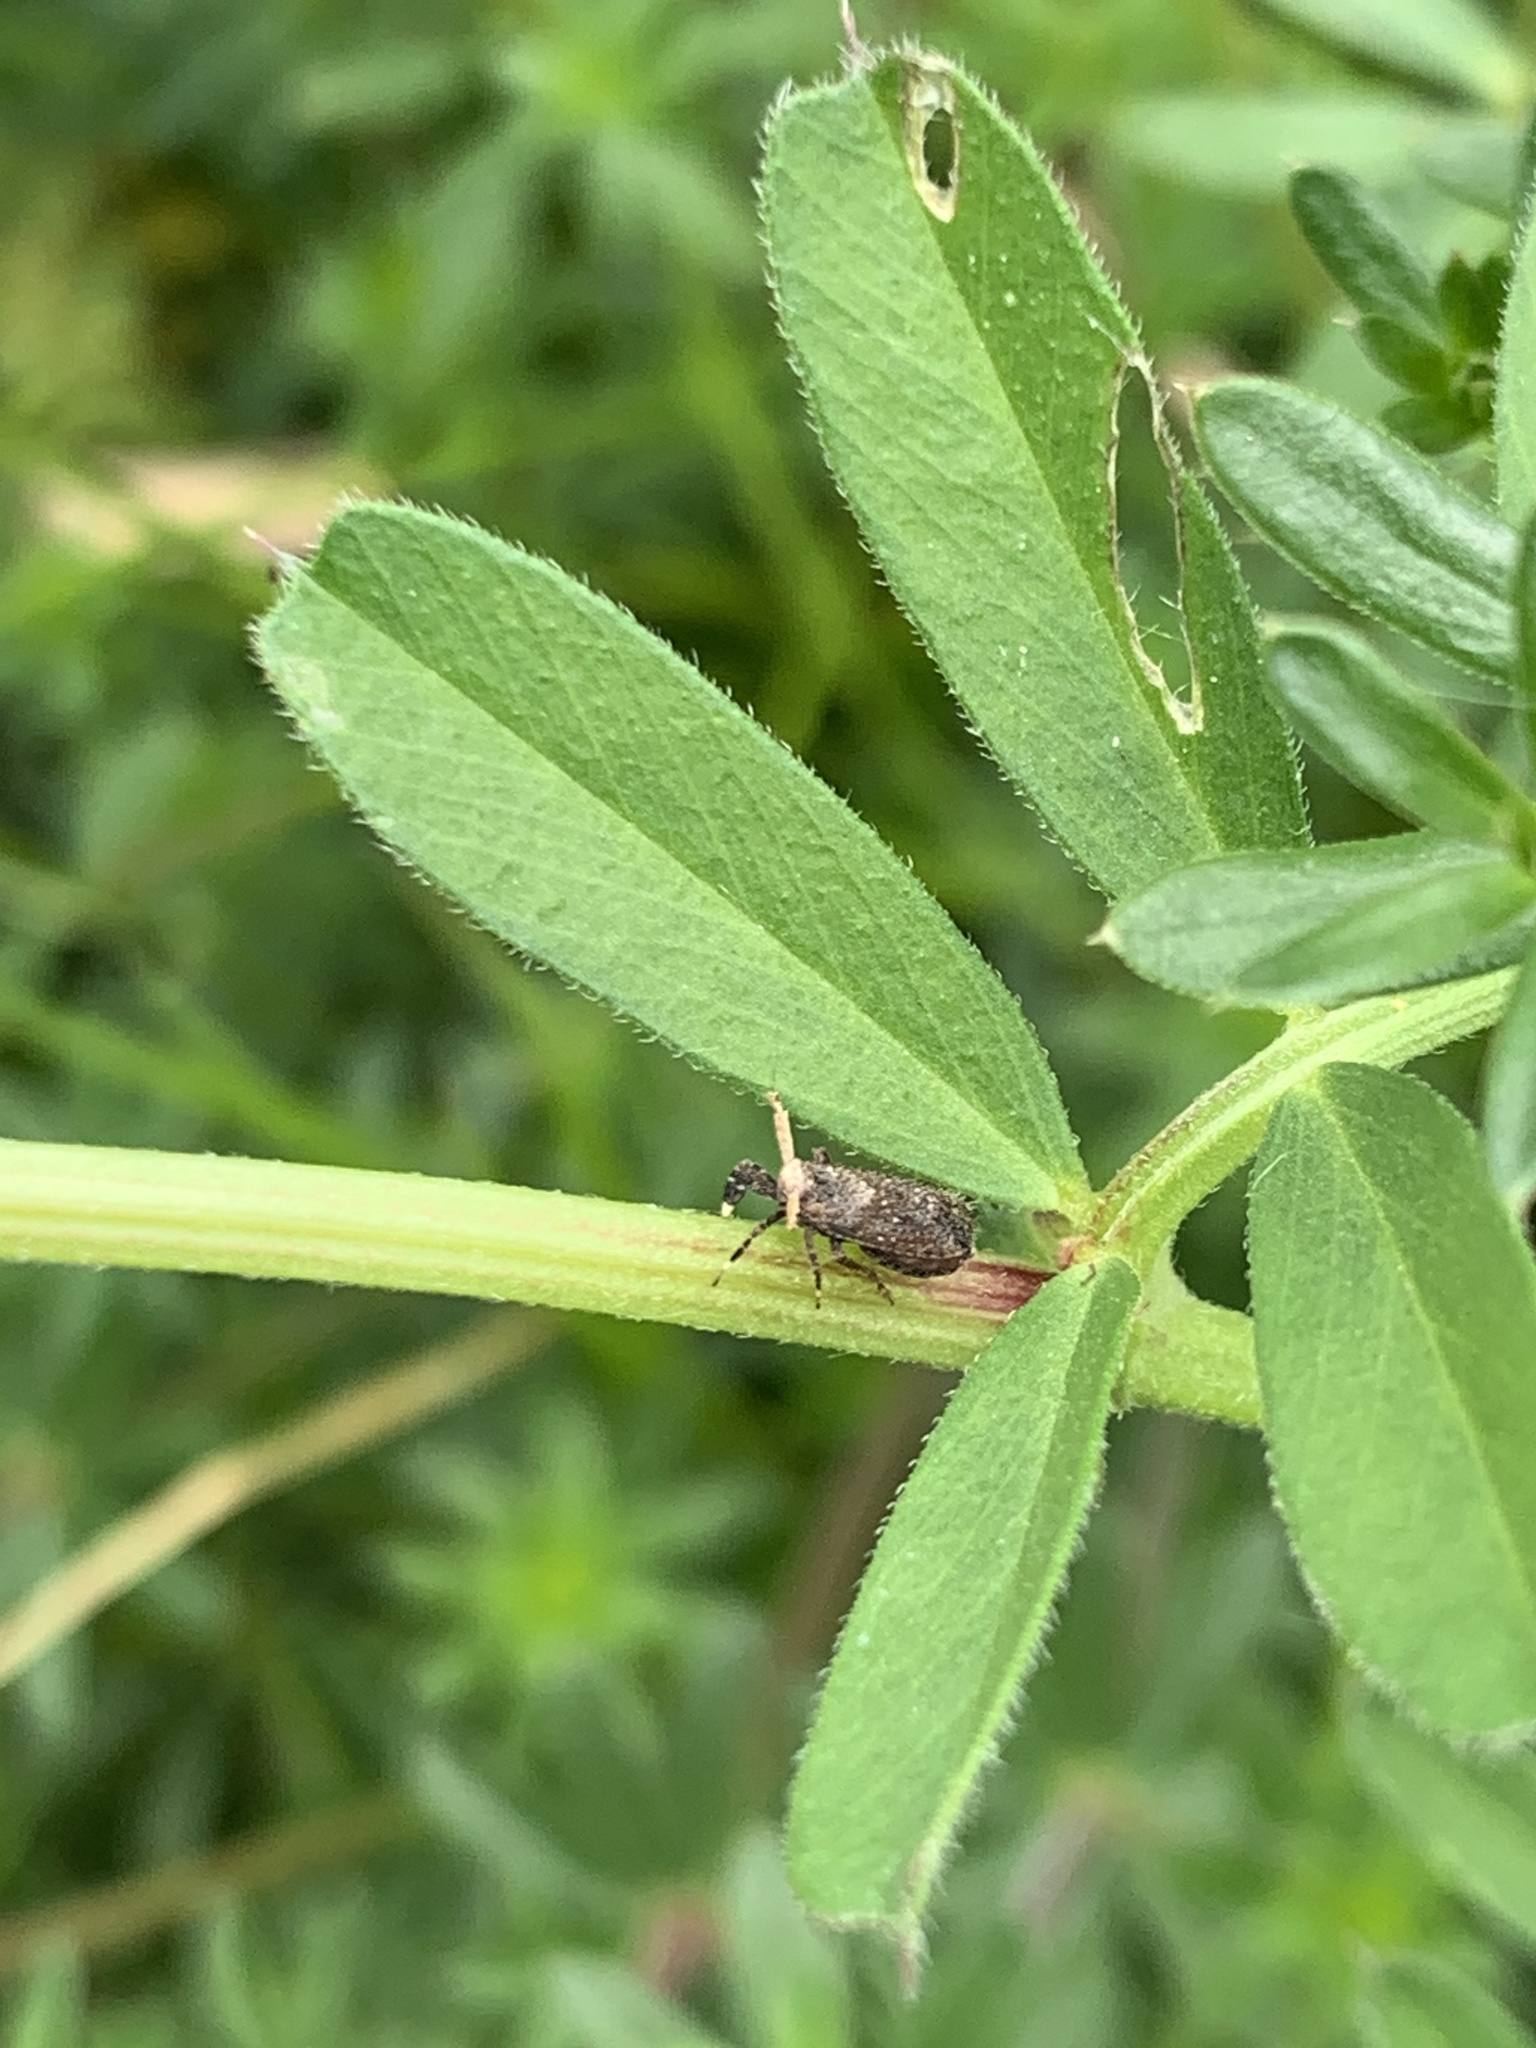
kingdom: Animalia
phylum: Arthropoda
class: Insecta
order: Hemiptera
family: Delphacidae
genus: Asiraca
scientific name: Asiraca clavicornis
